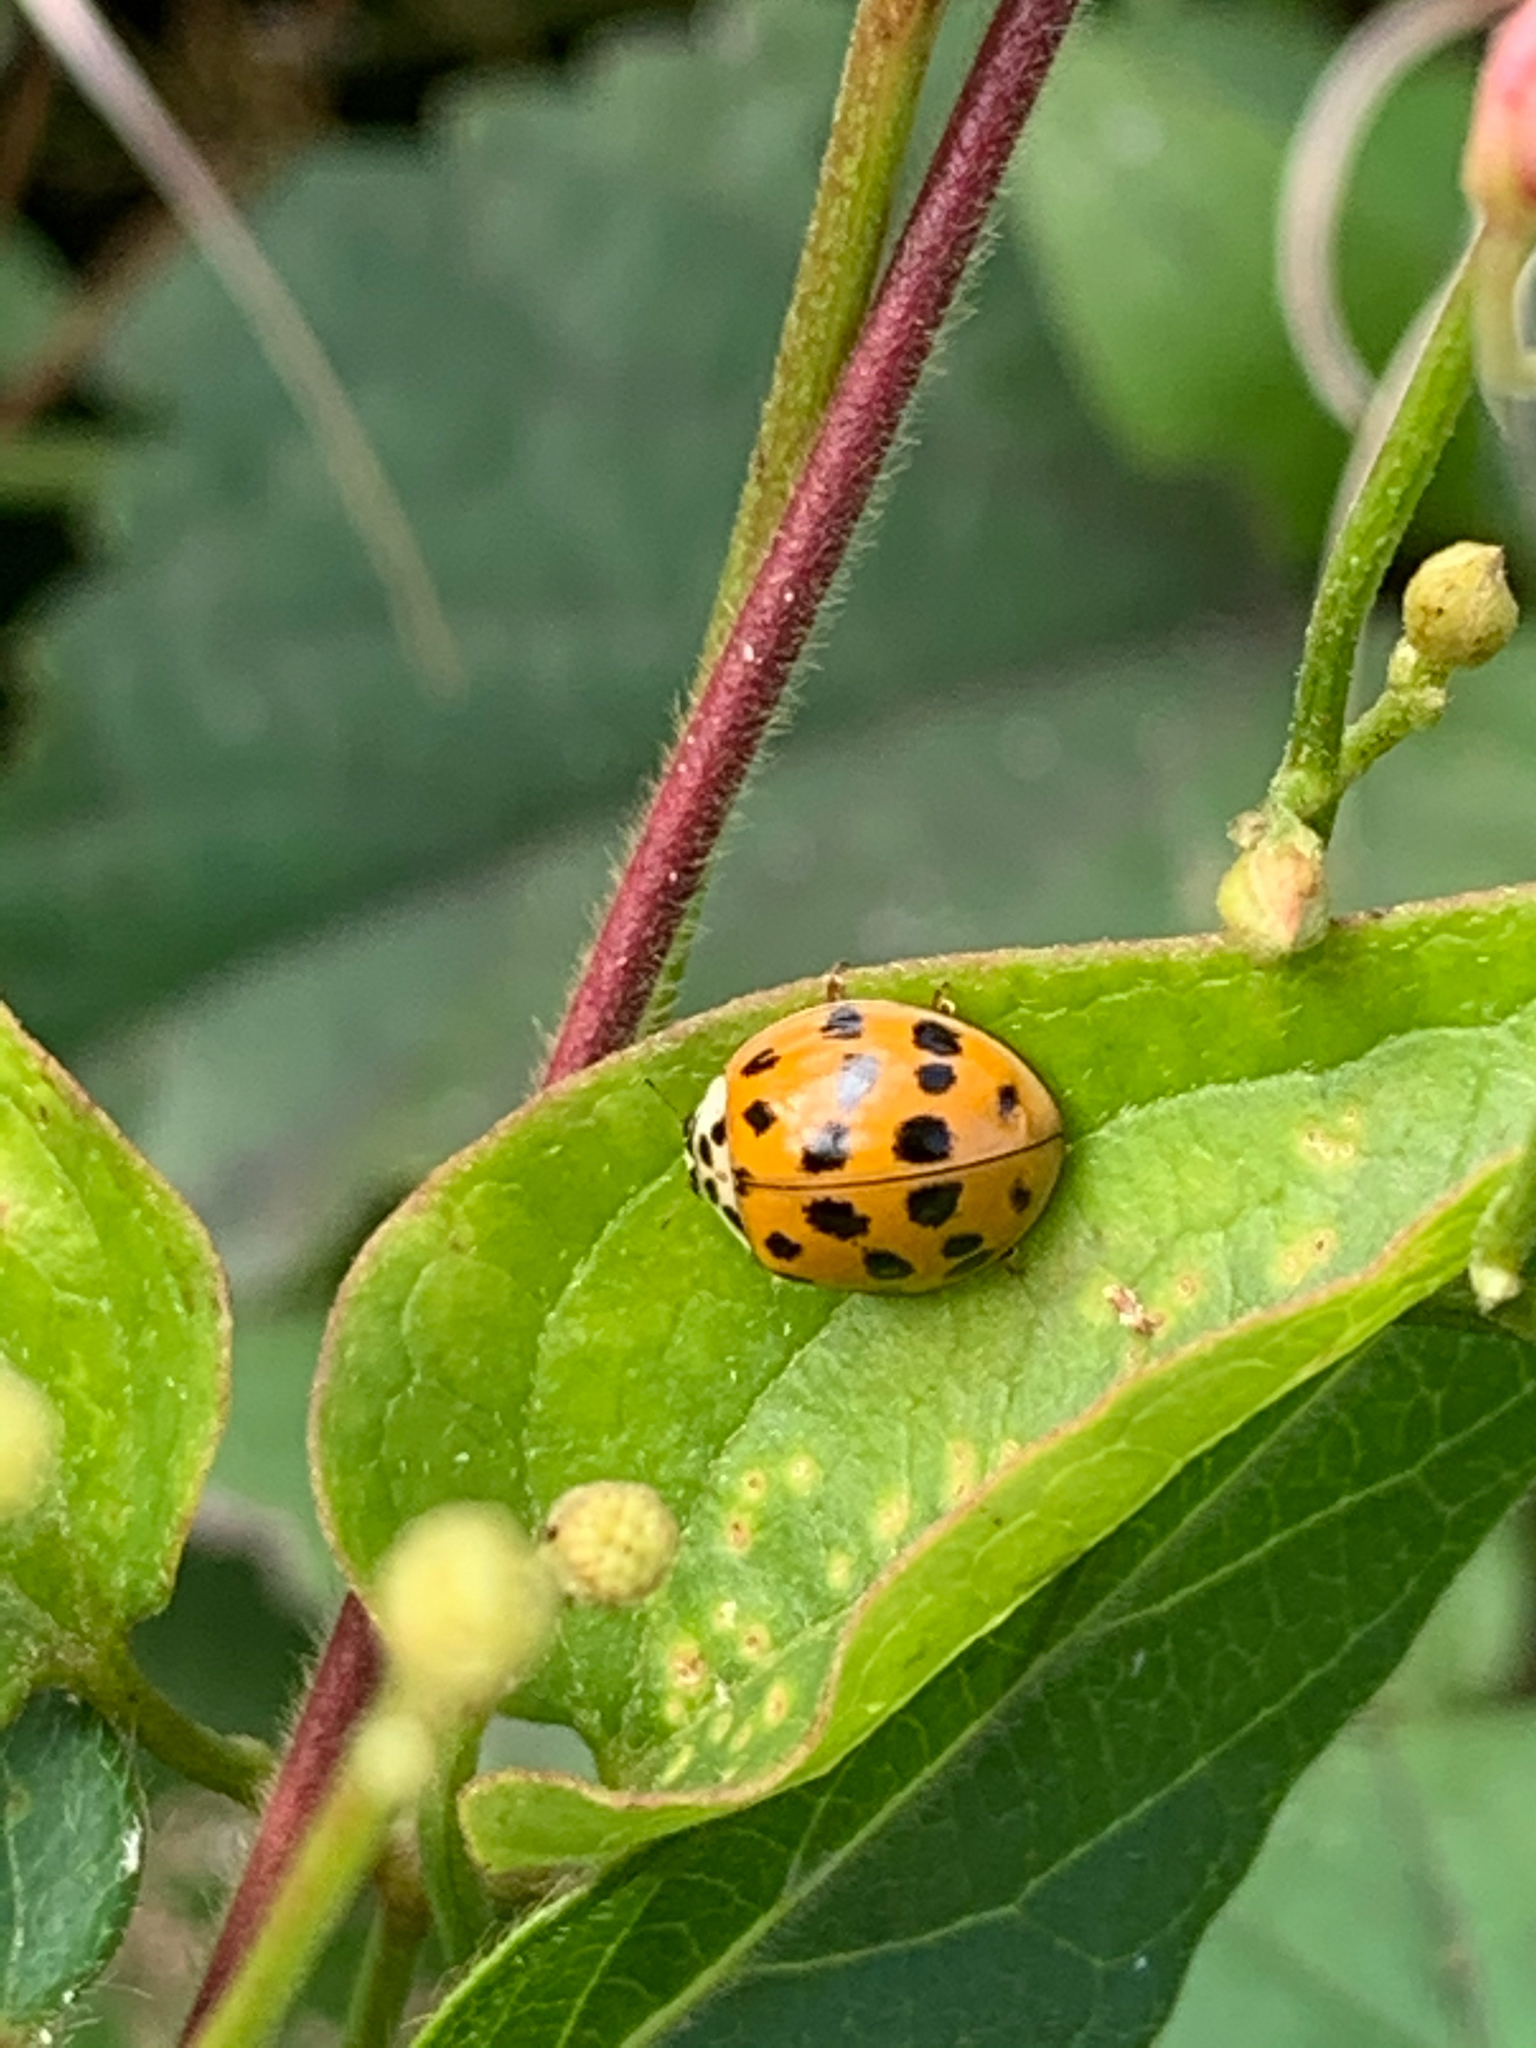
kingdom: Animalia
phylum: Arthropoda
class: Insecta
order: Coleoptera
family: Coccinellidae
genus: Harmonia
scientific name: Harmonia axyridis
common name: Harlequin ladybird
